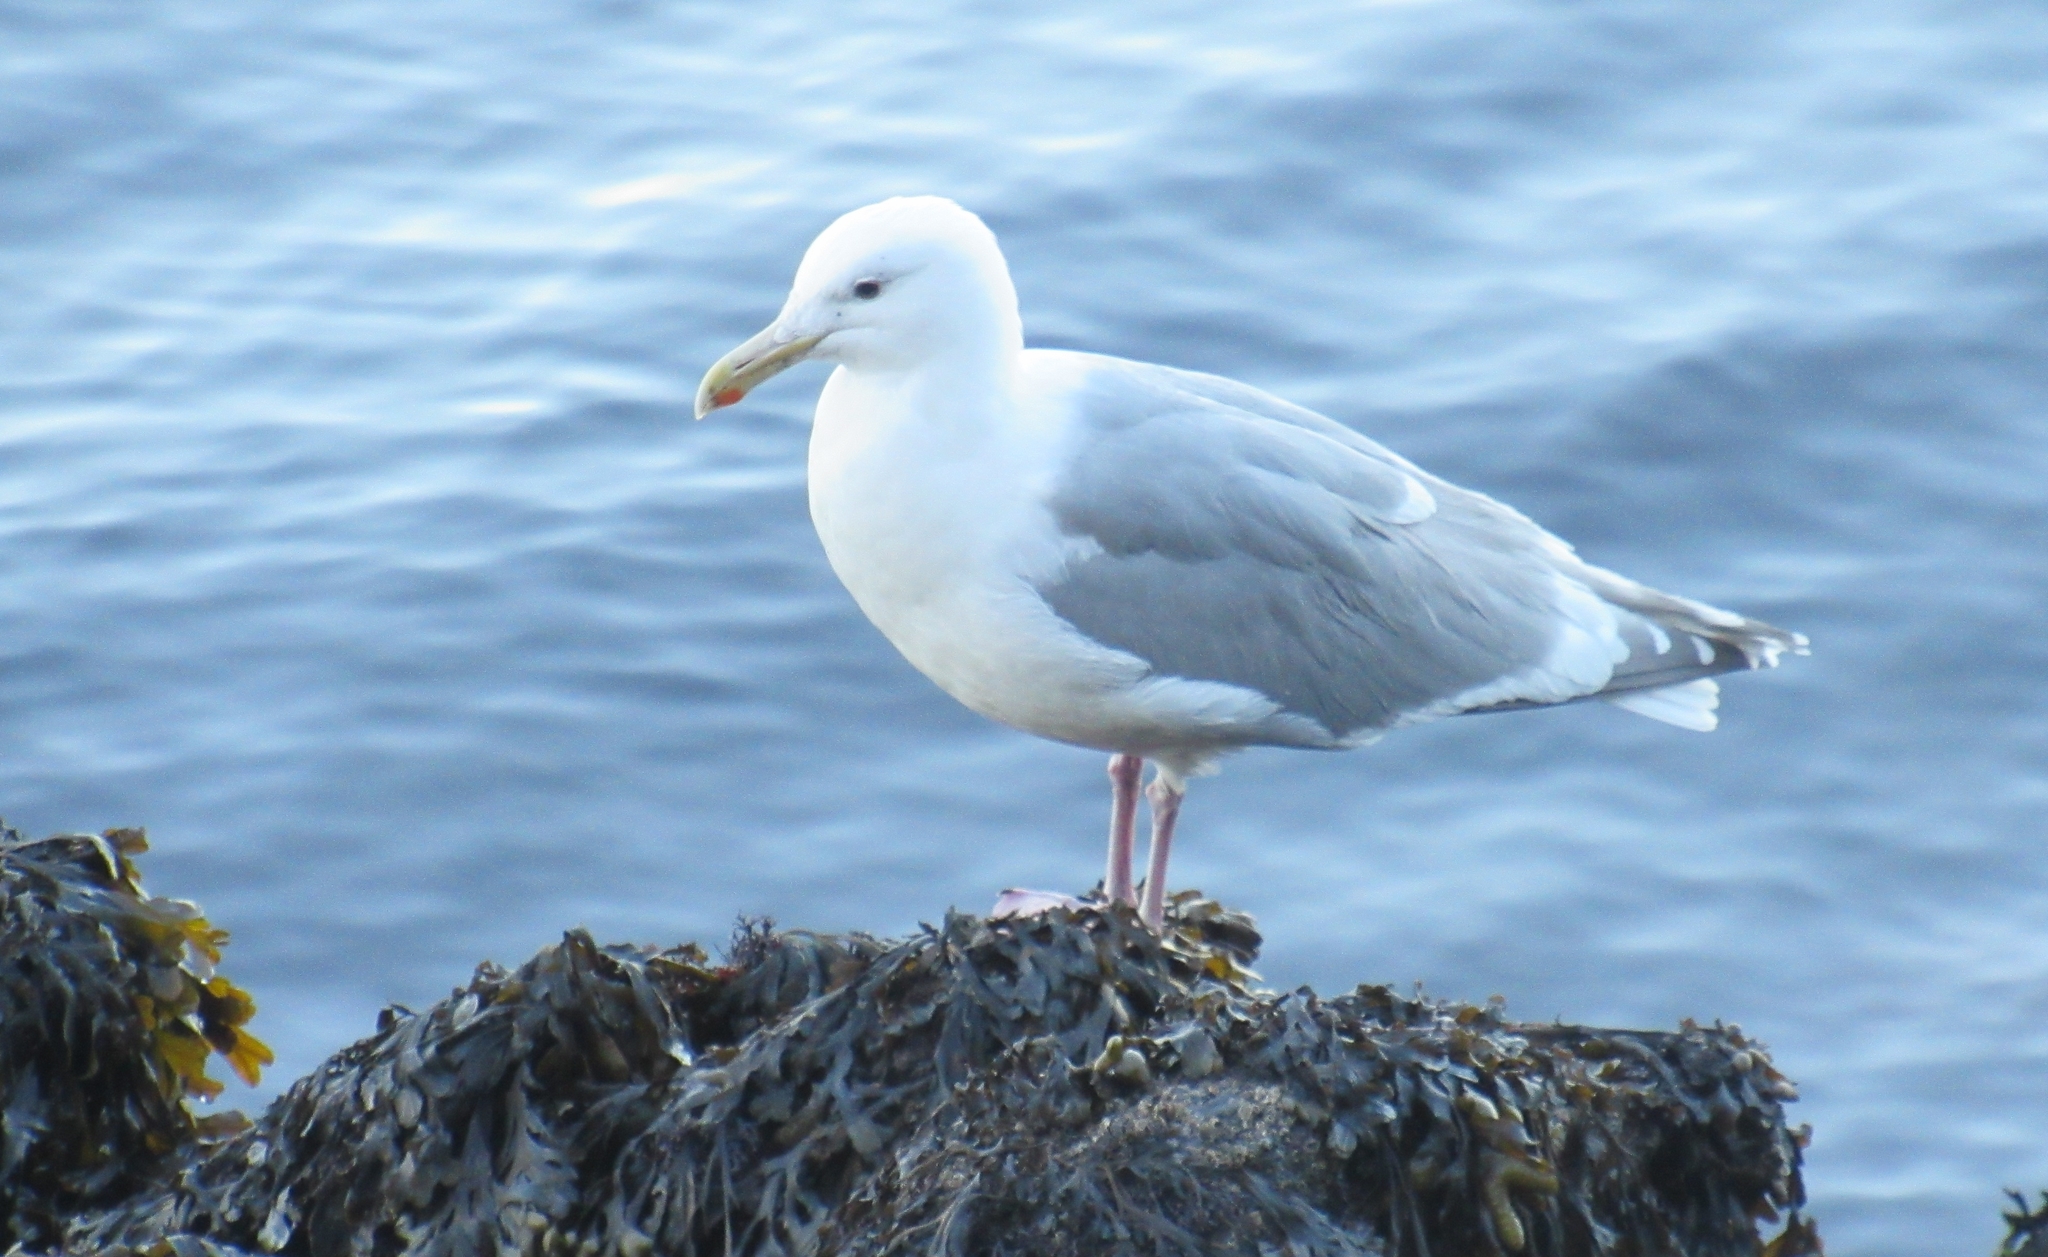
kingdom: Animalia
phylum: Chordata
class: Aves
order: Charadriiformes
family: Laridae
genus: Larus
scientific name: Larus glaucescens
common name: Glaucous-winged gull
